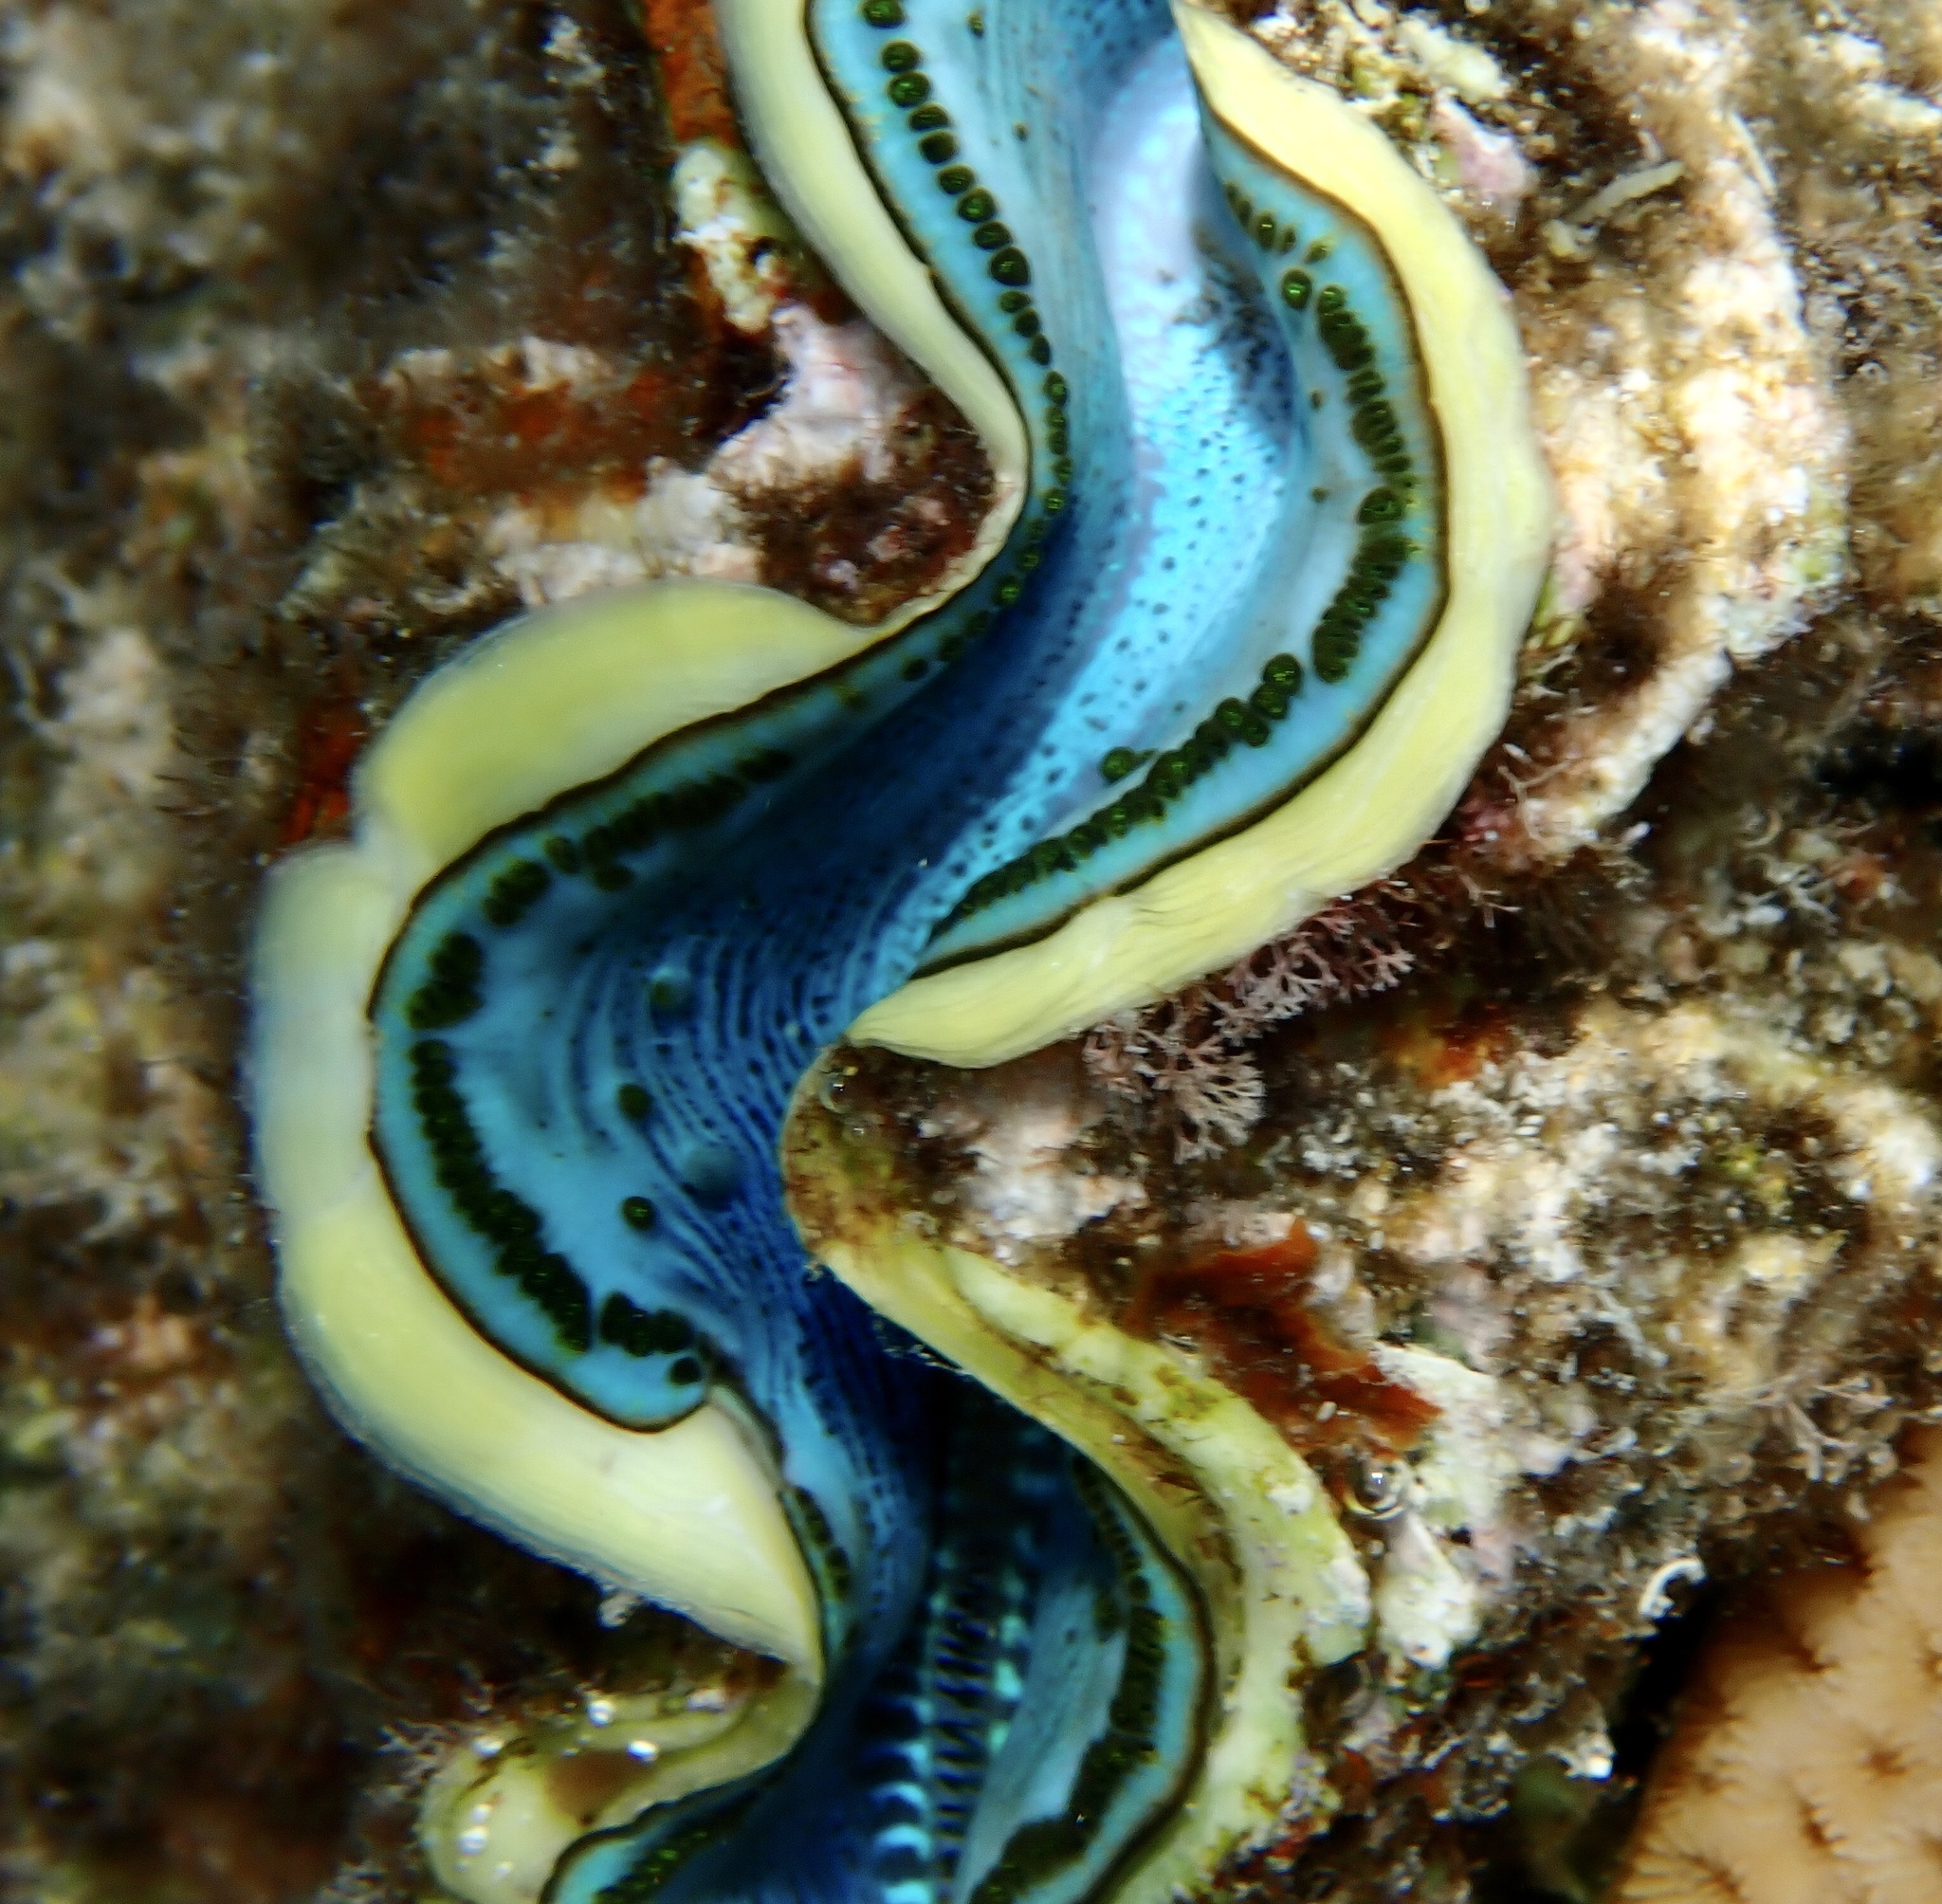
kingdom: Animalia
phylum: Mollusca
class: Bivalvia
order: Cardiida
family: Cardiidae
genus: Tridacna
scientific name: Tridacna maxima
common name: Small giant clam
